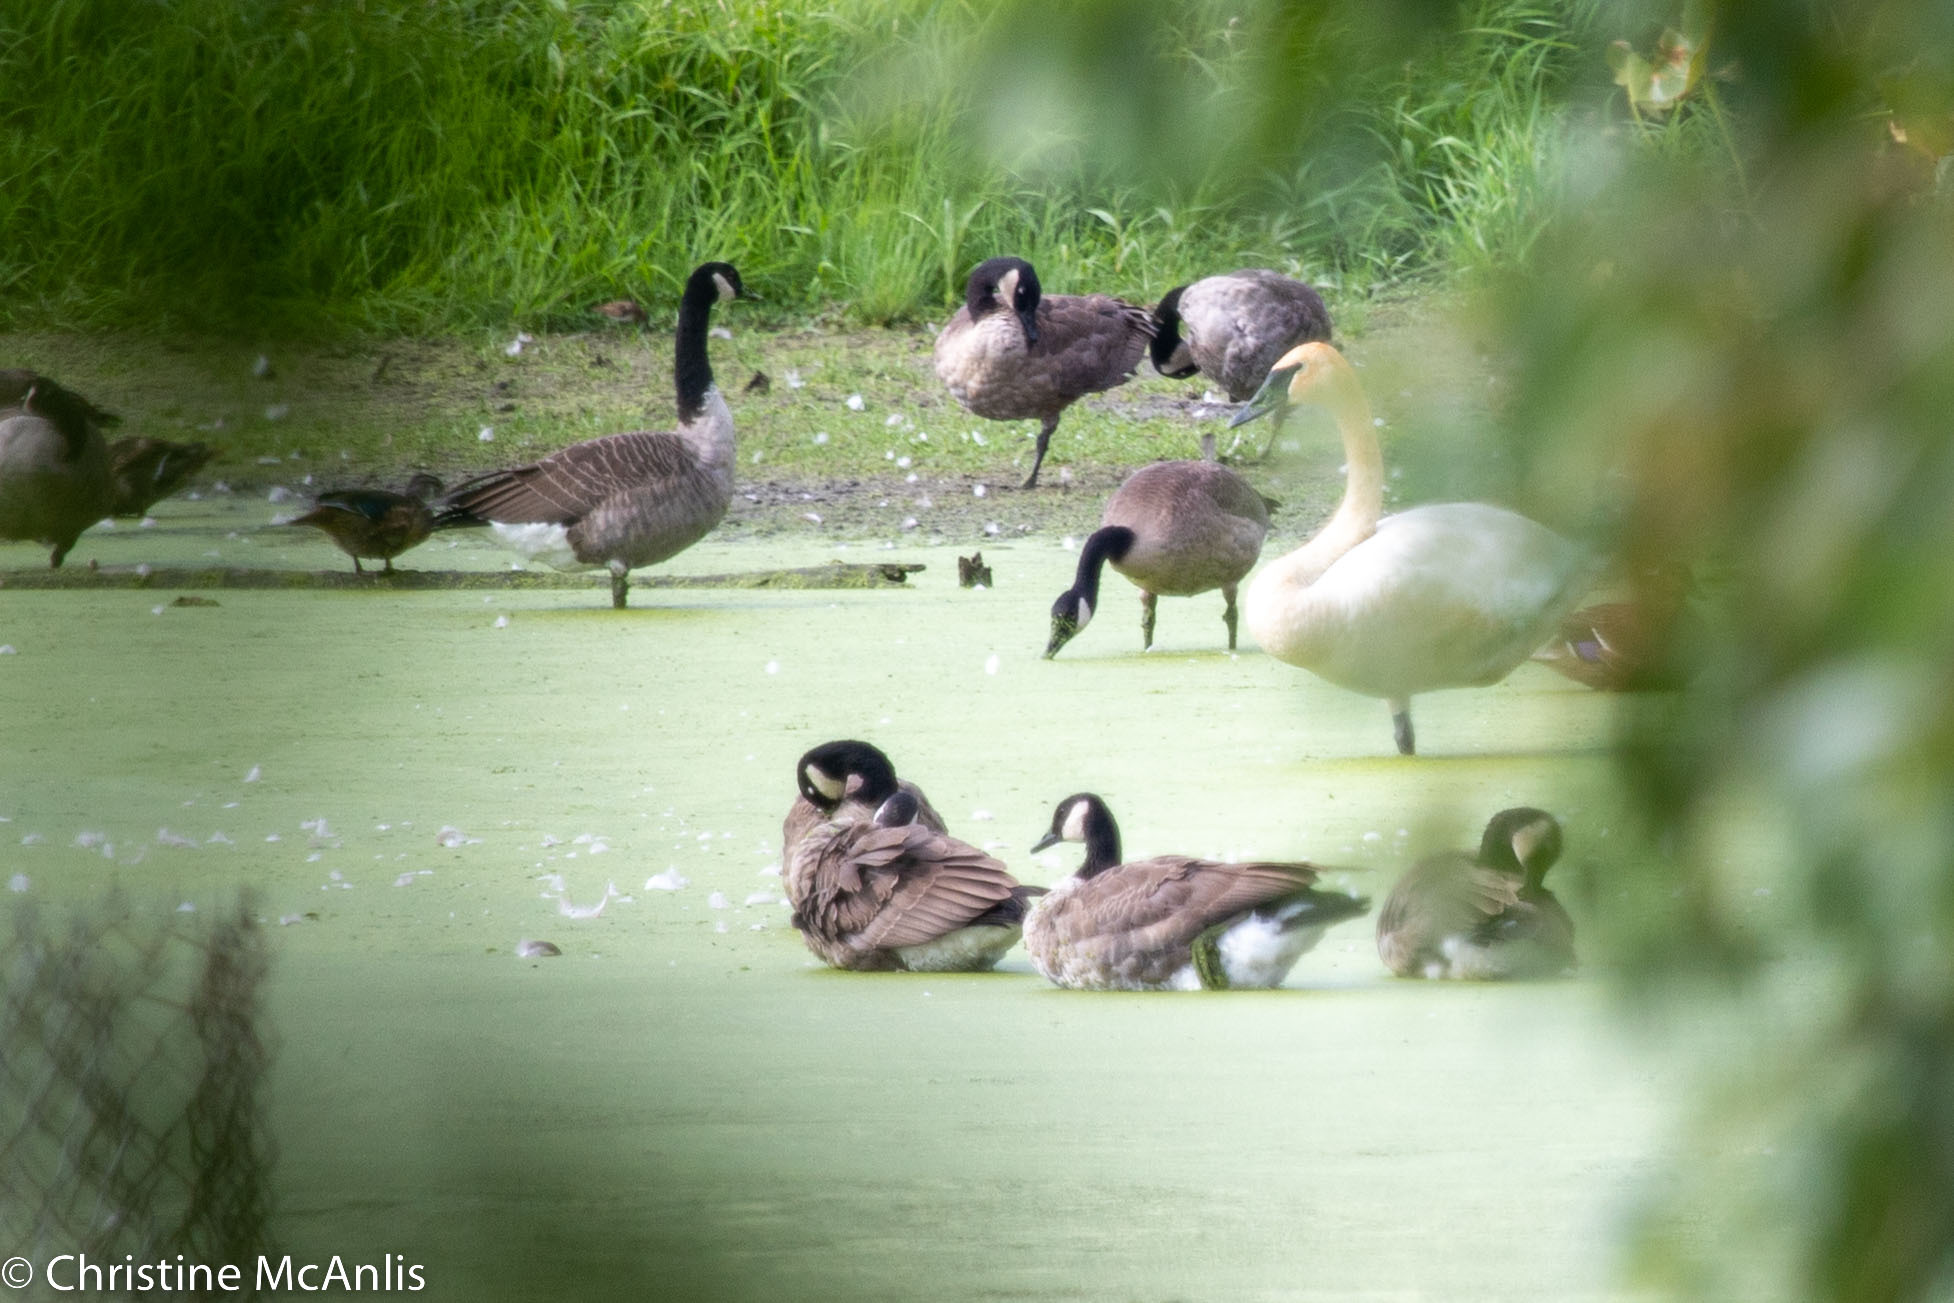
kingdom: Animalia
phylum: Chordata
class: Aves
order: Anseriformes
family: Anatidae
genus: Cygnus
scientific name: Cygnus buccinator
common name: Trumpeter swan
